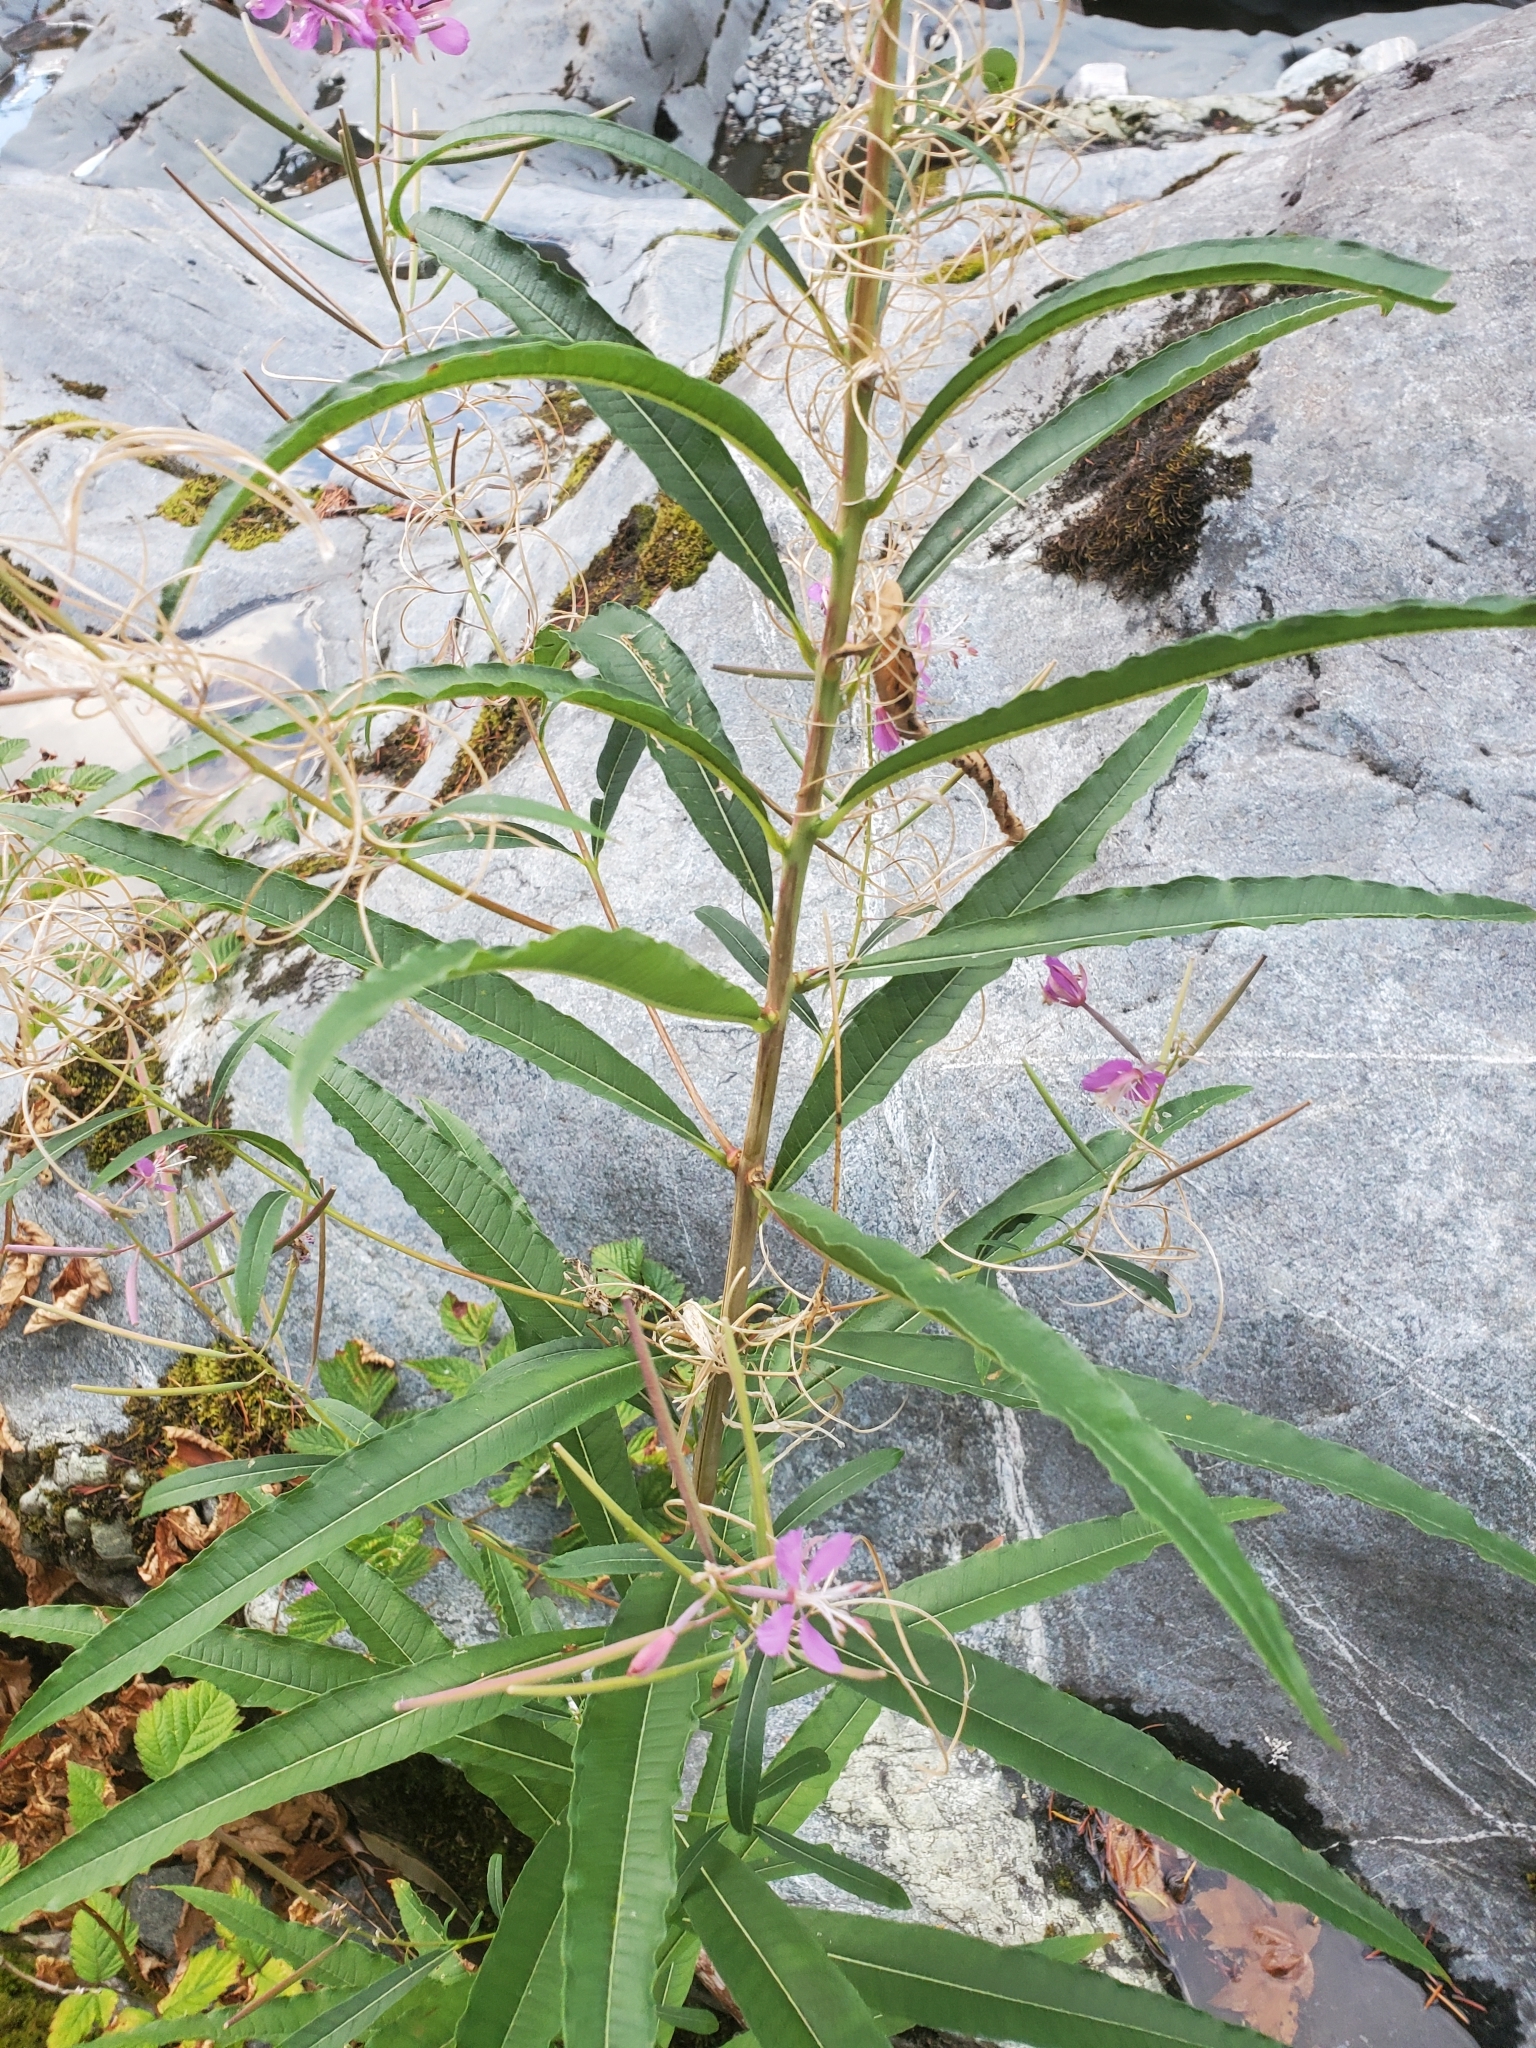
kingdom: Plantae
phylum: Tracheophyta
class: Magnoliopsida
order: Myrtales
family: Onagraceae
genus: Chamaenerion
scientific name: Chamaenerion angustifolium
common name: Fireweed
